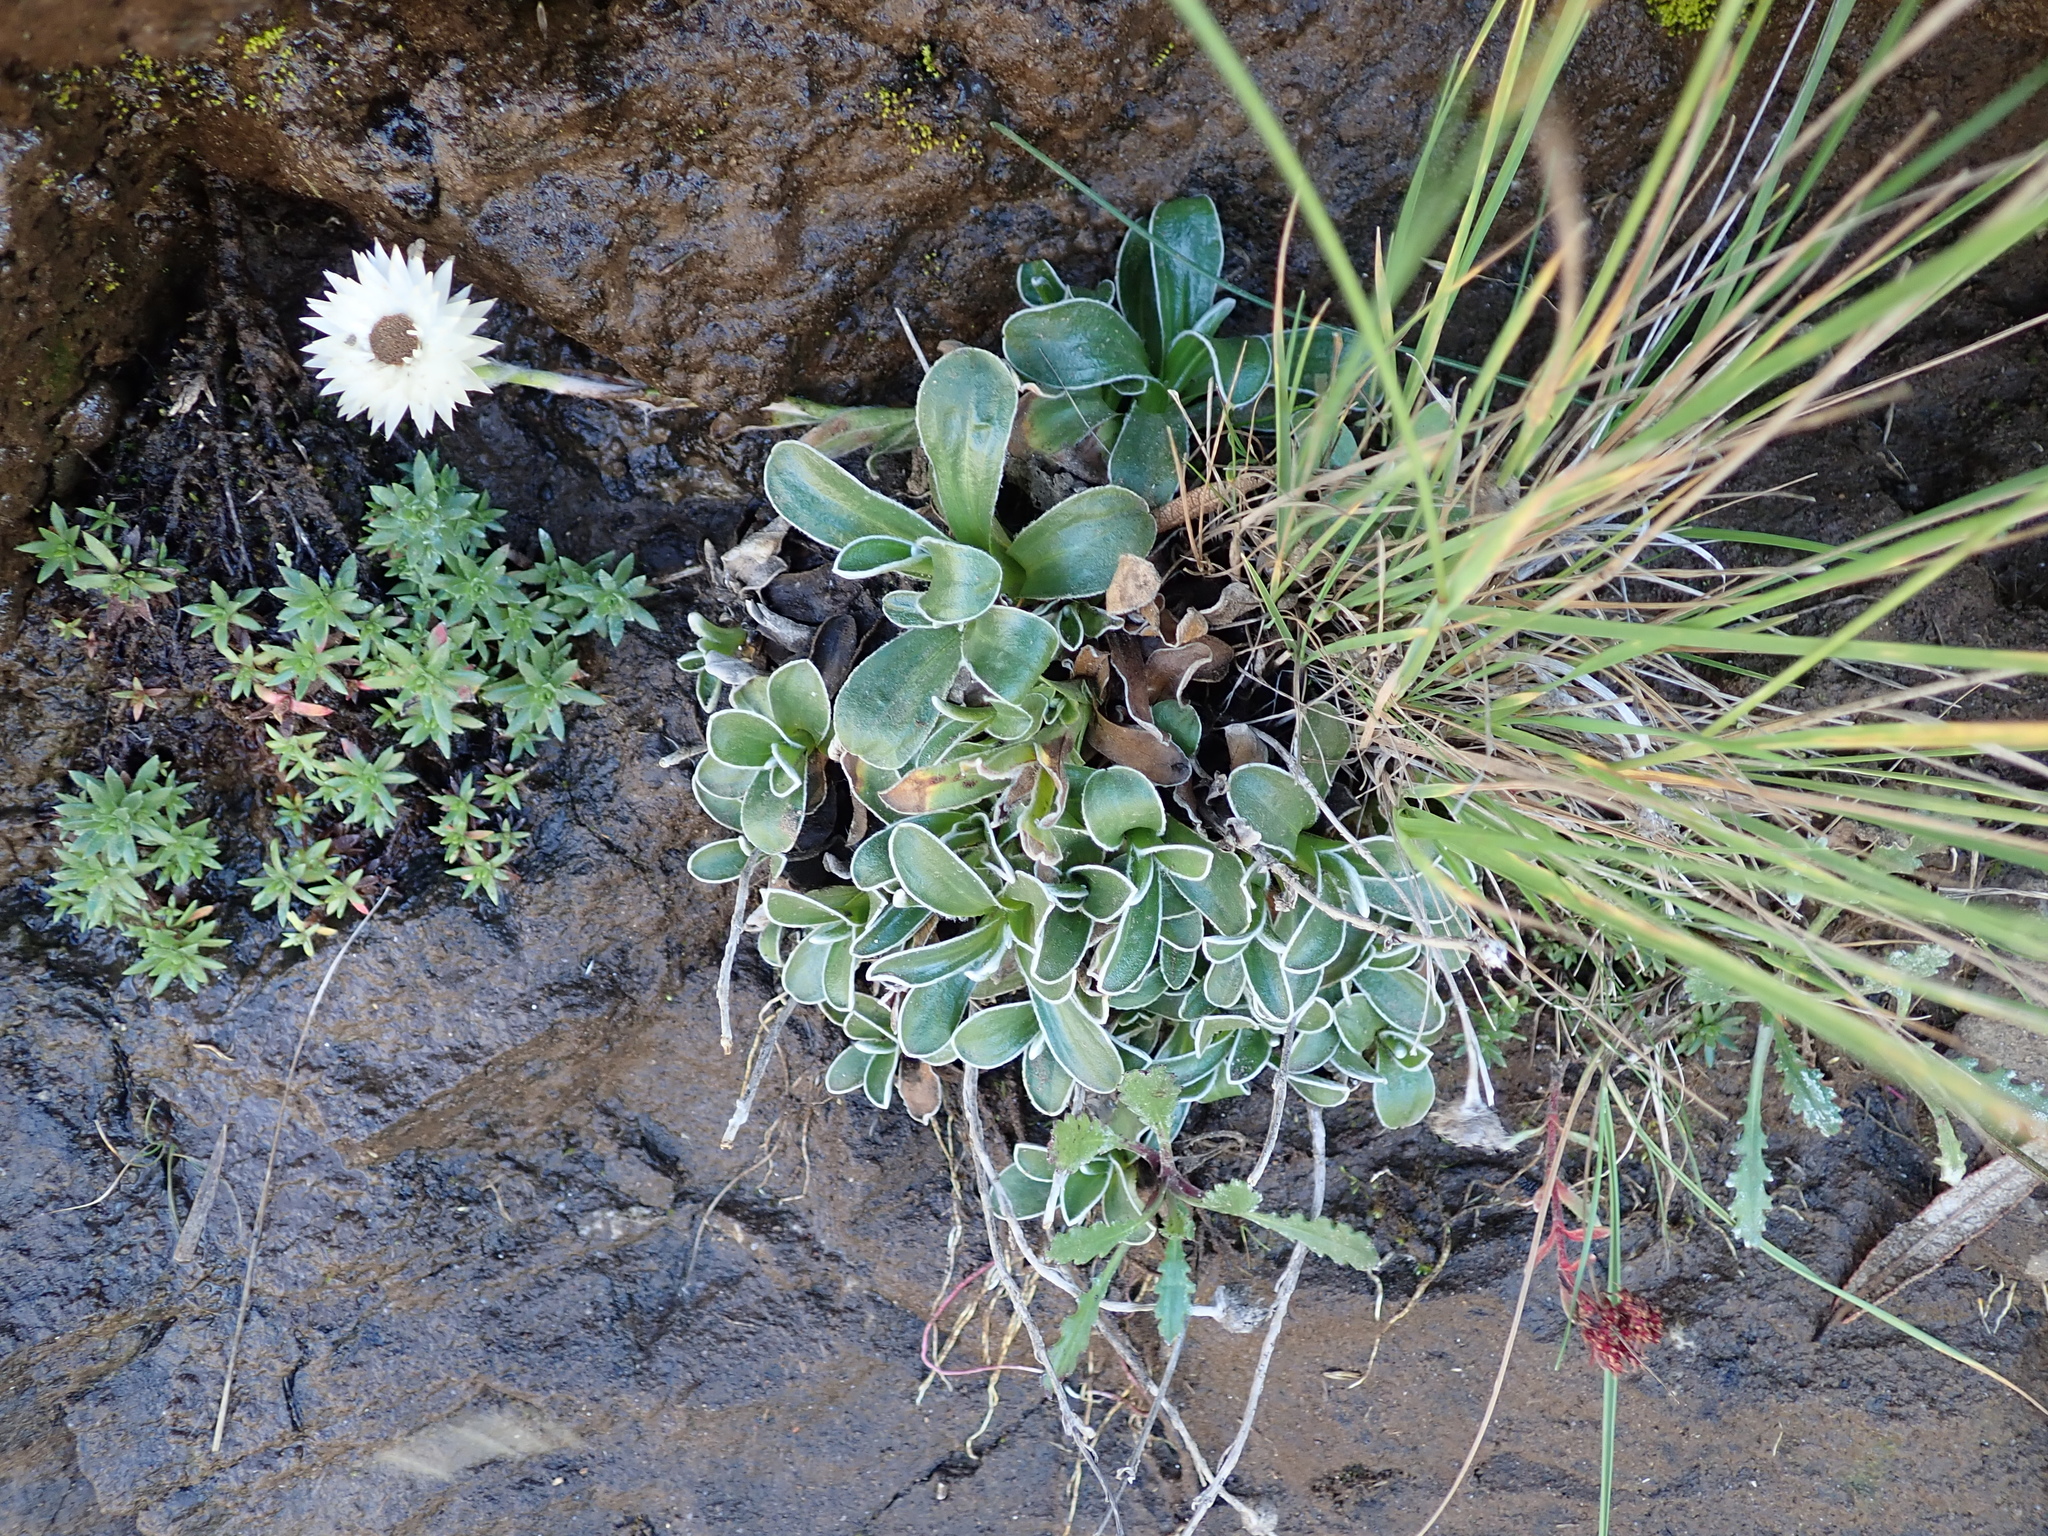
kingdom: Plantae
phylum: Tracheophyta
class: Magnoliopsida
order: Asterales
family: Asteraceae
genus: Helichrysum
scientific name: Helichrysum marginatum
